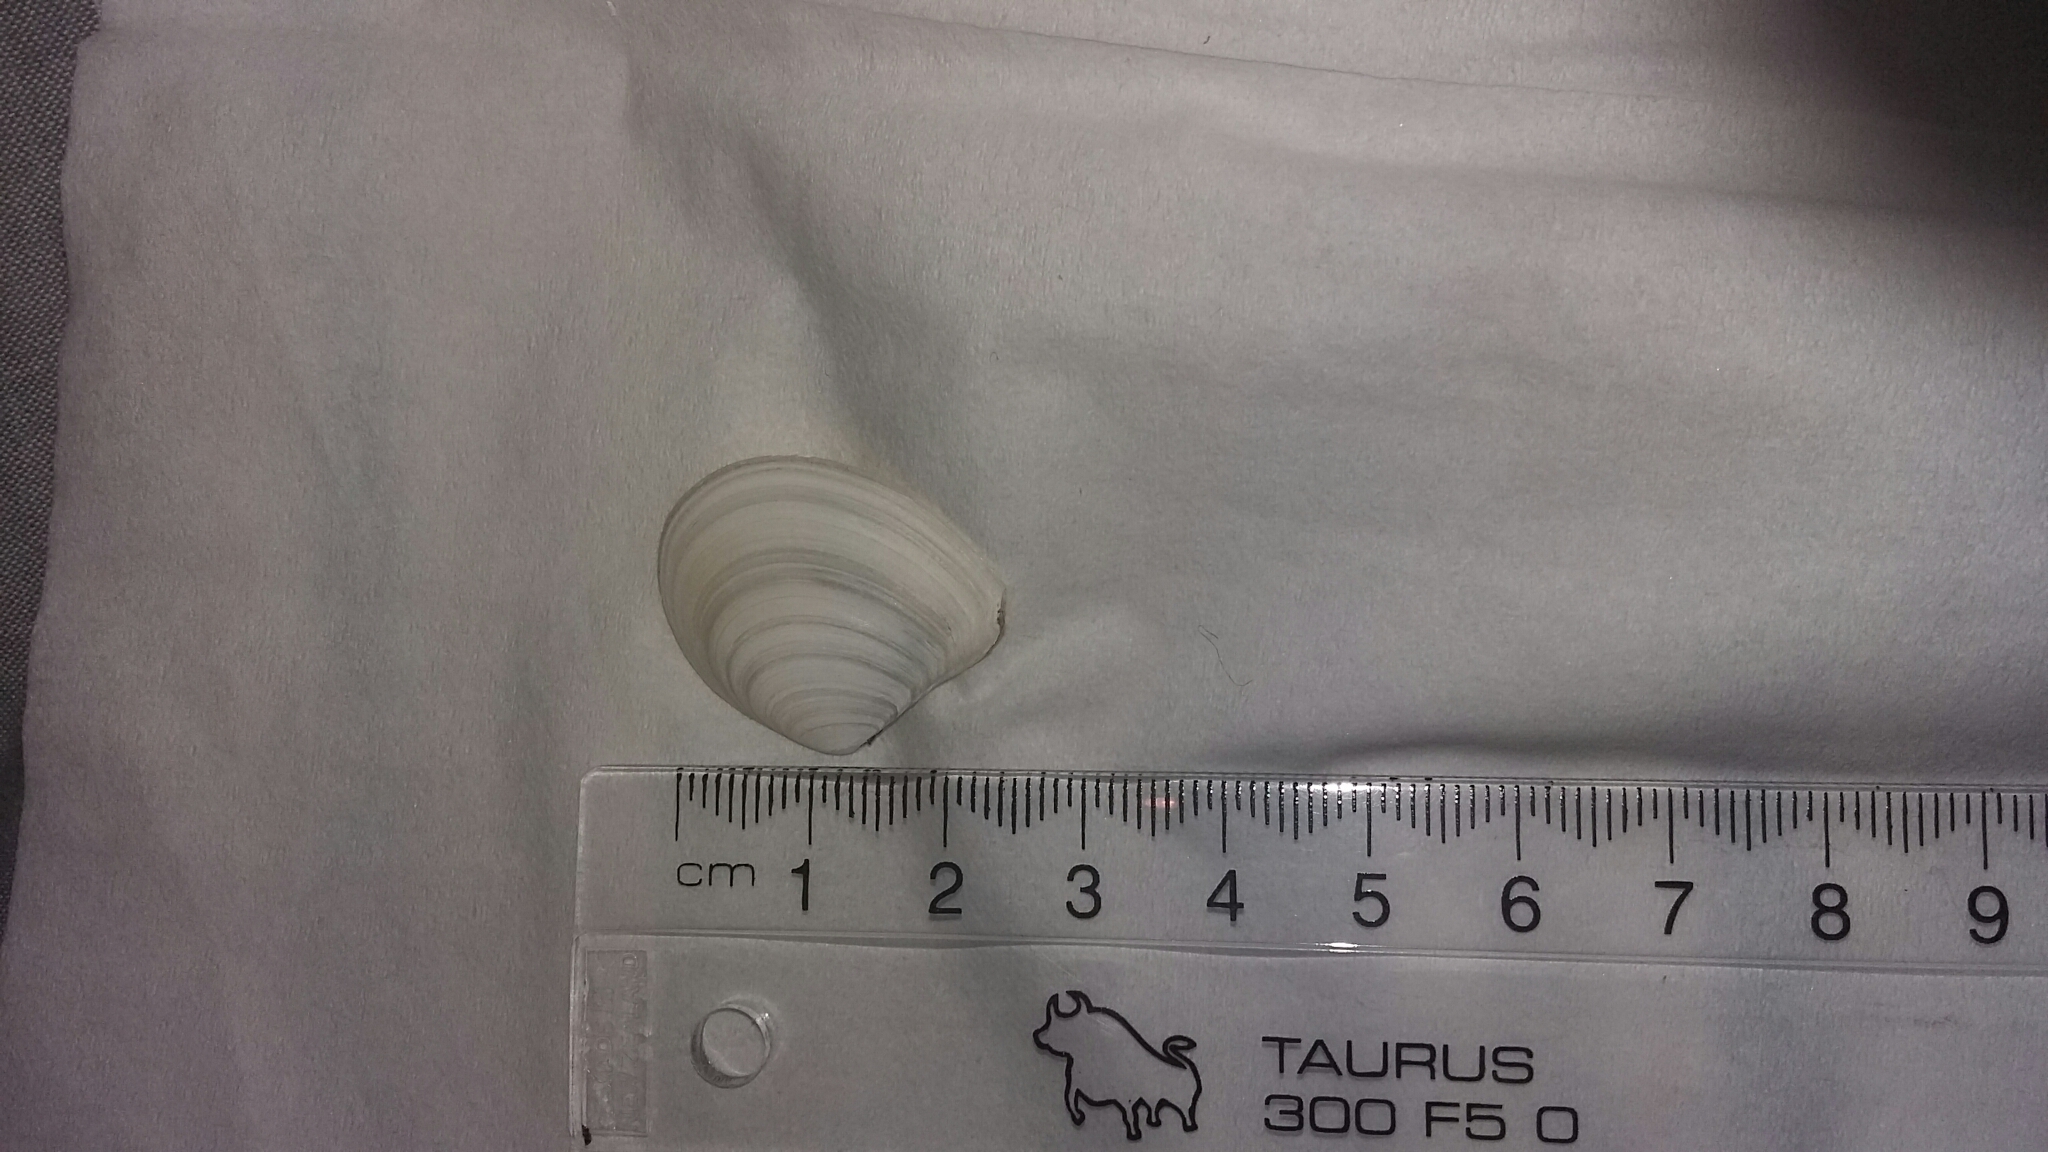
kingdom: Animalia
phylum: Mollusca
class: Bivalvia
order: Cardiida
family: Tellinidae
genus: Macomona
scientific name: Macomona liliana
